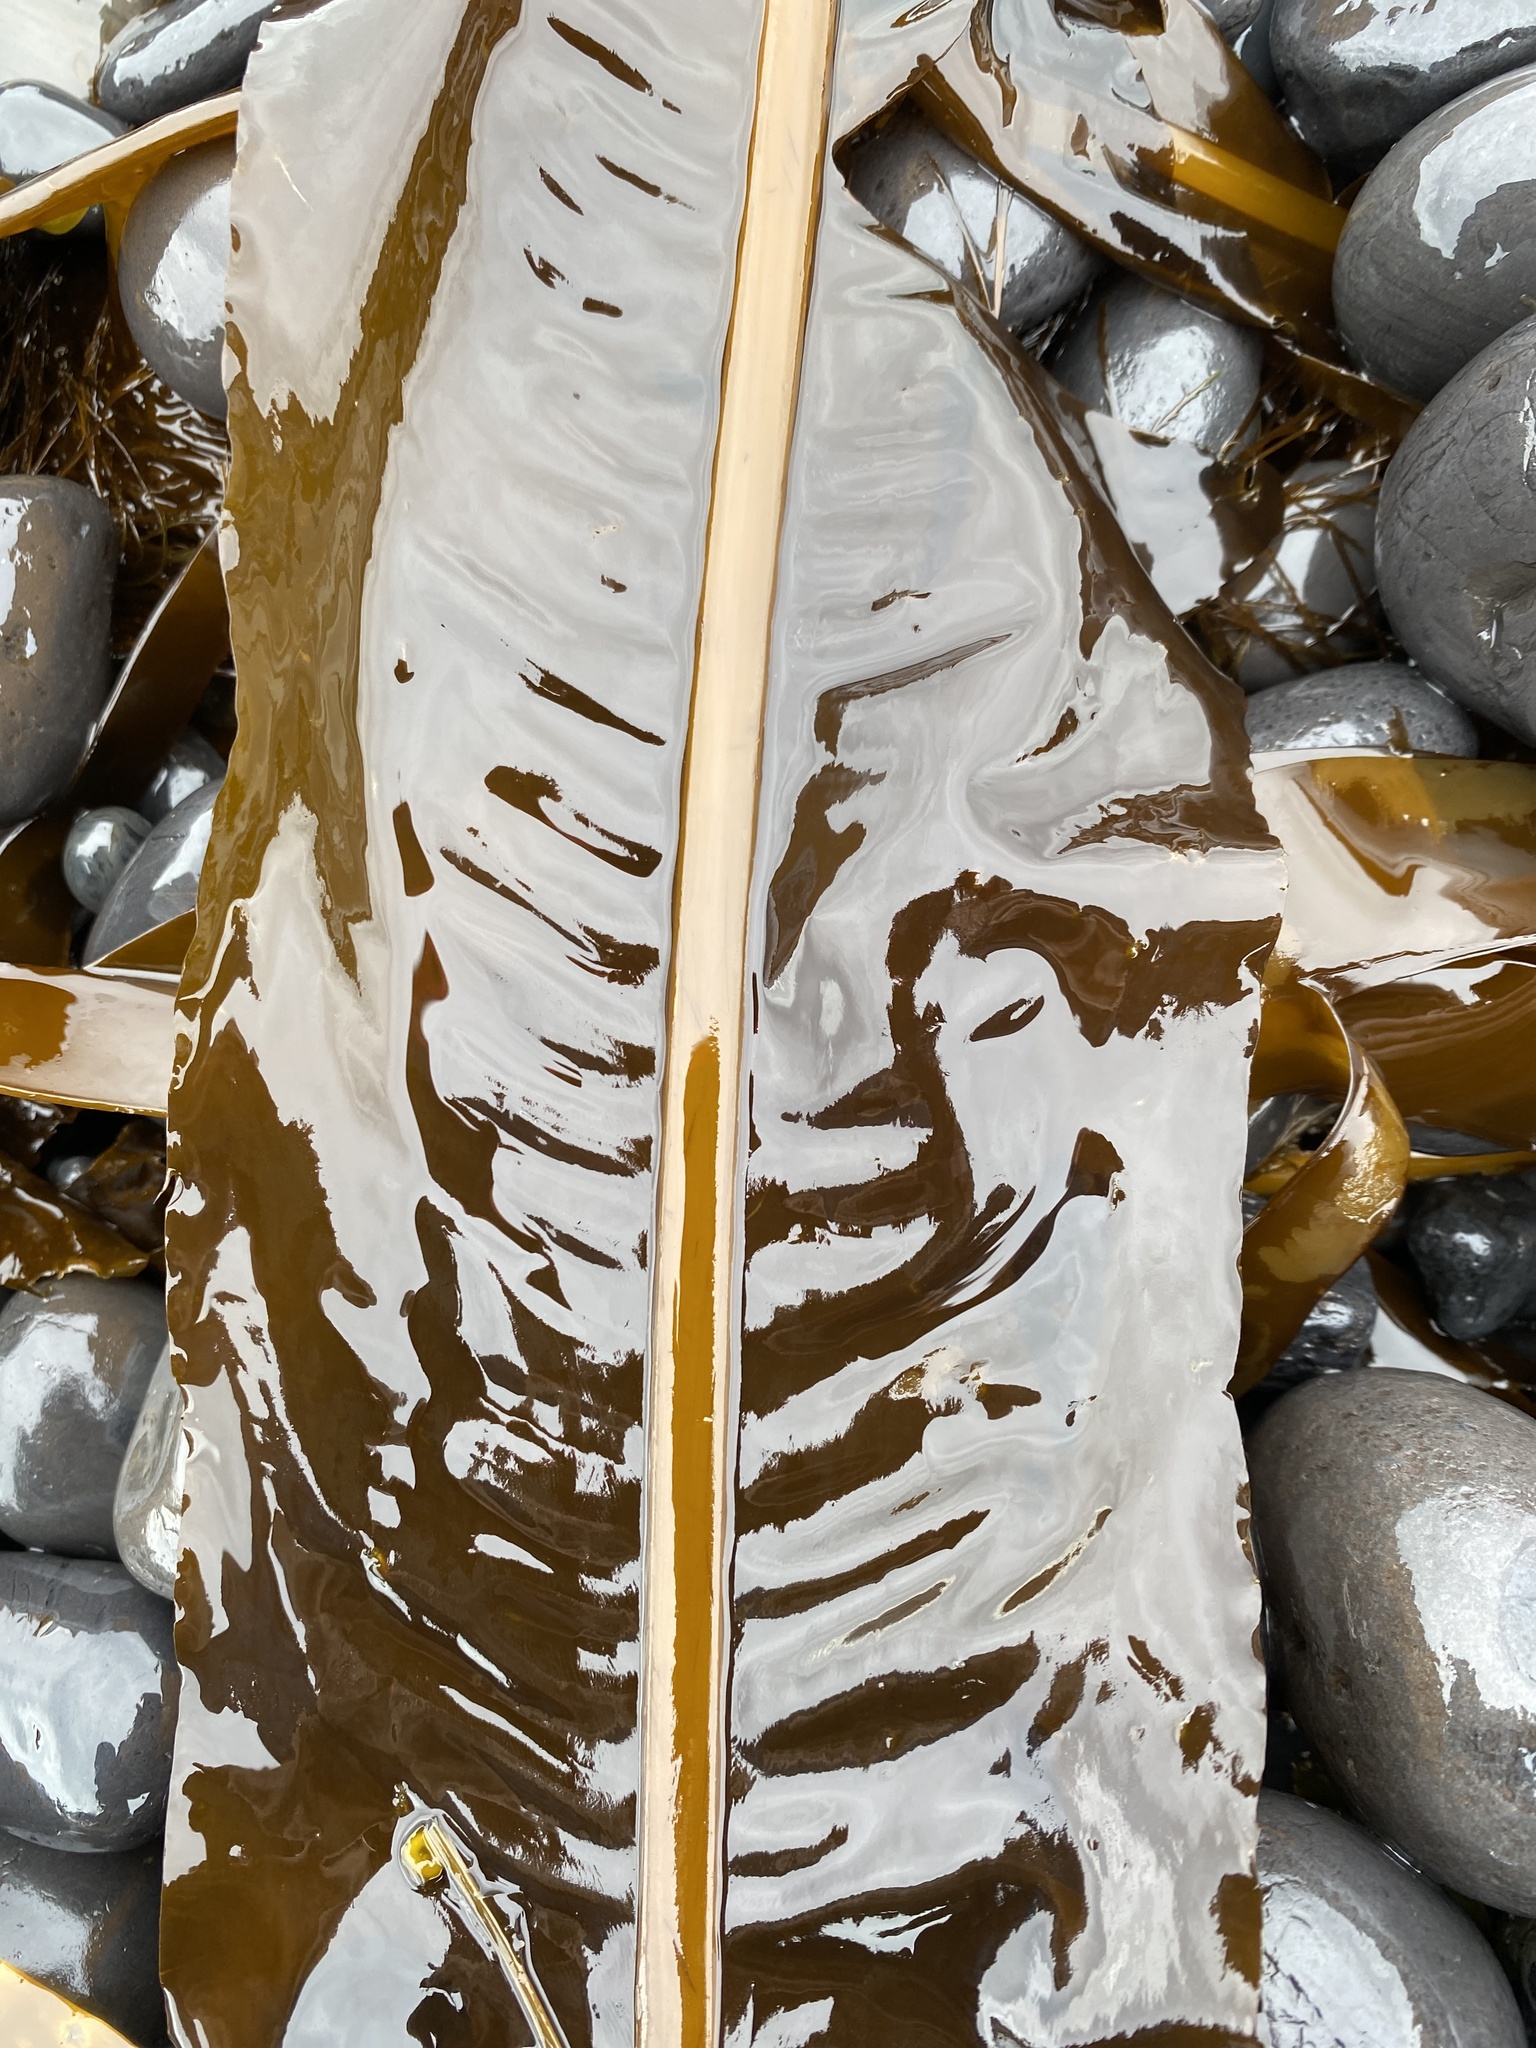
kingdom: Chromista
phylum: Ochrophyta
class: Phaeophyceae
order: Laminariales
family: Alariaceae
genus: Alaria
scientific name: Alaria esculenta
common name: Dabberlocks
